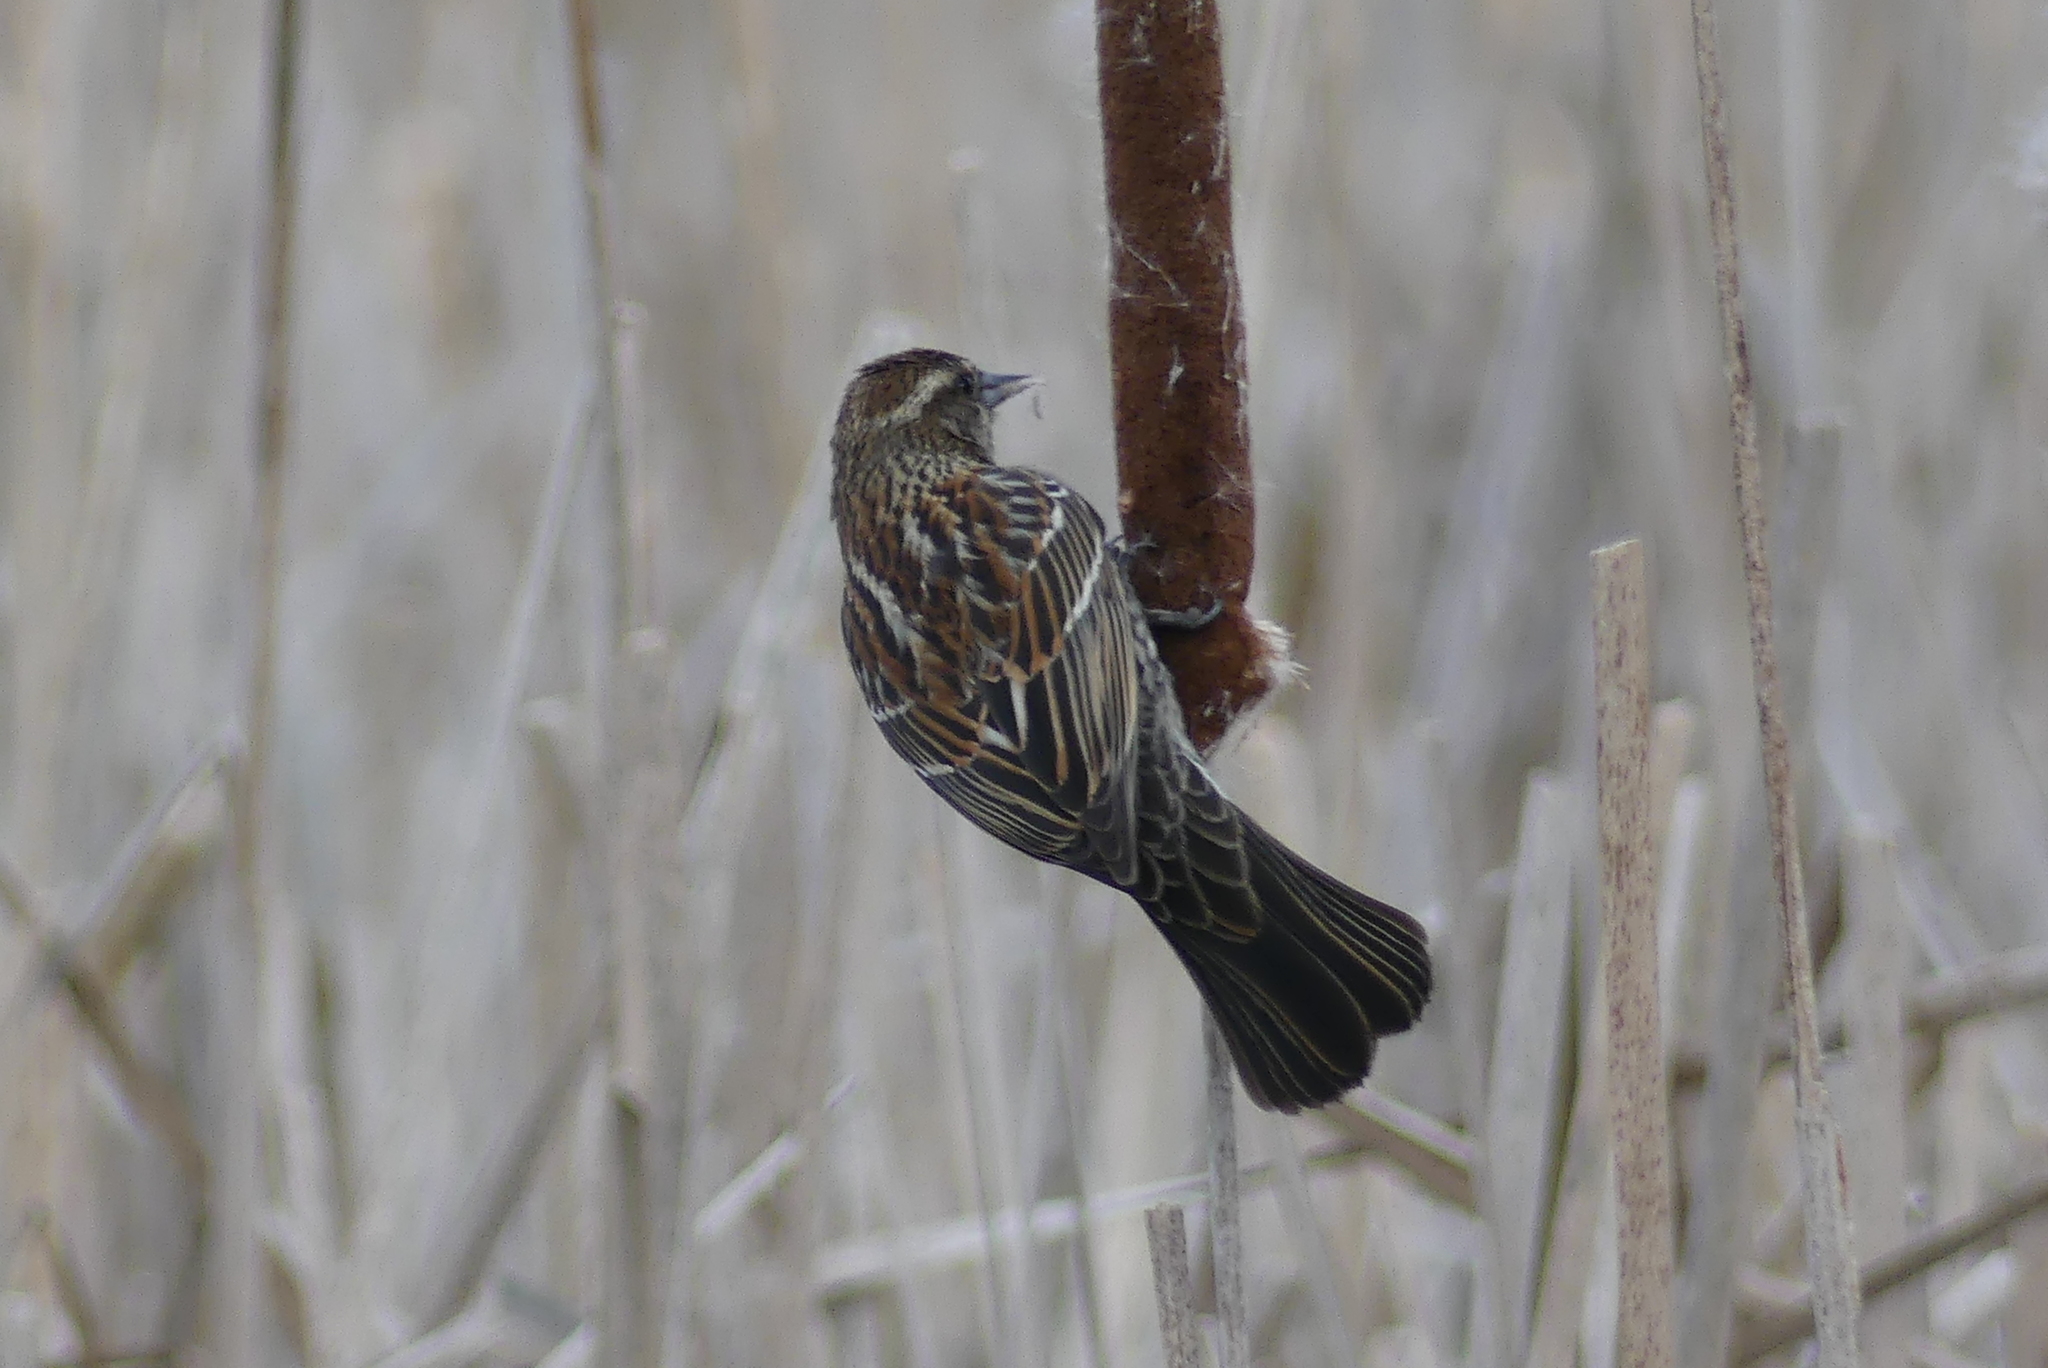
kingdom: Animalia
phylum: Chordata
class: Aves
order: Passeriformes
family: Icteridae
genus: Agelaius
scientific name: Agelaius phoeniceus
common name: Red-winged blackbird
